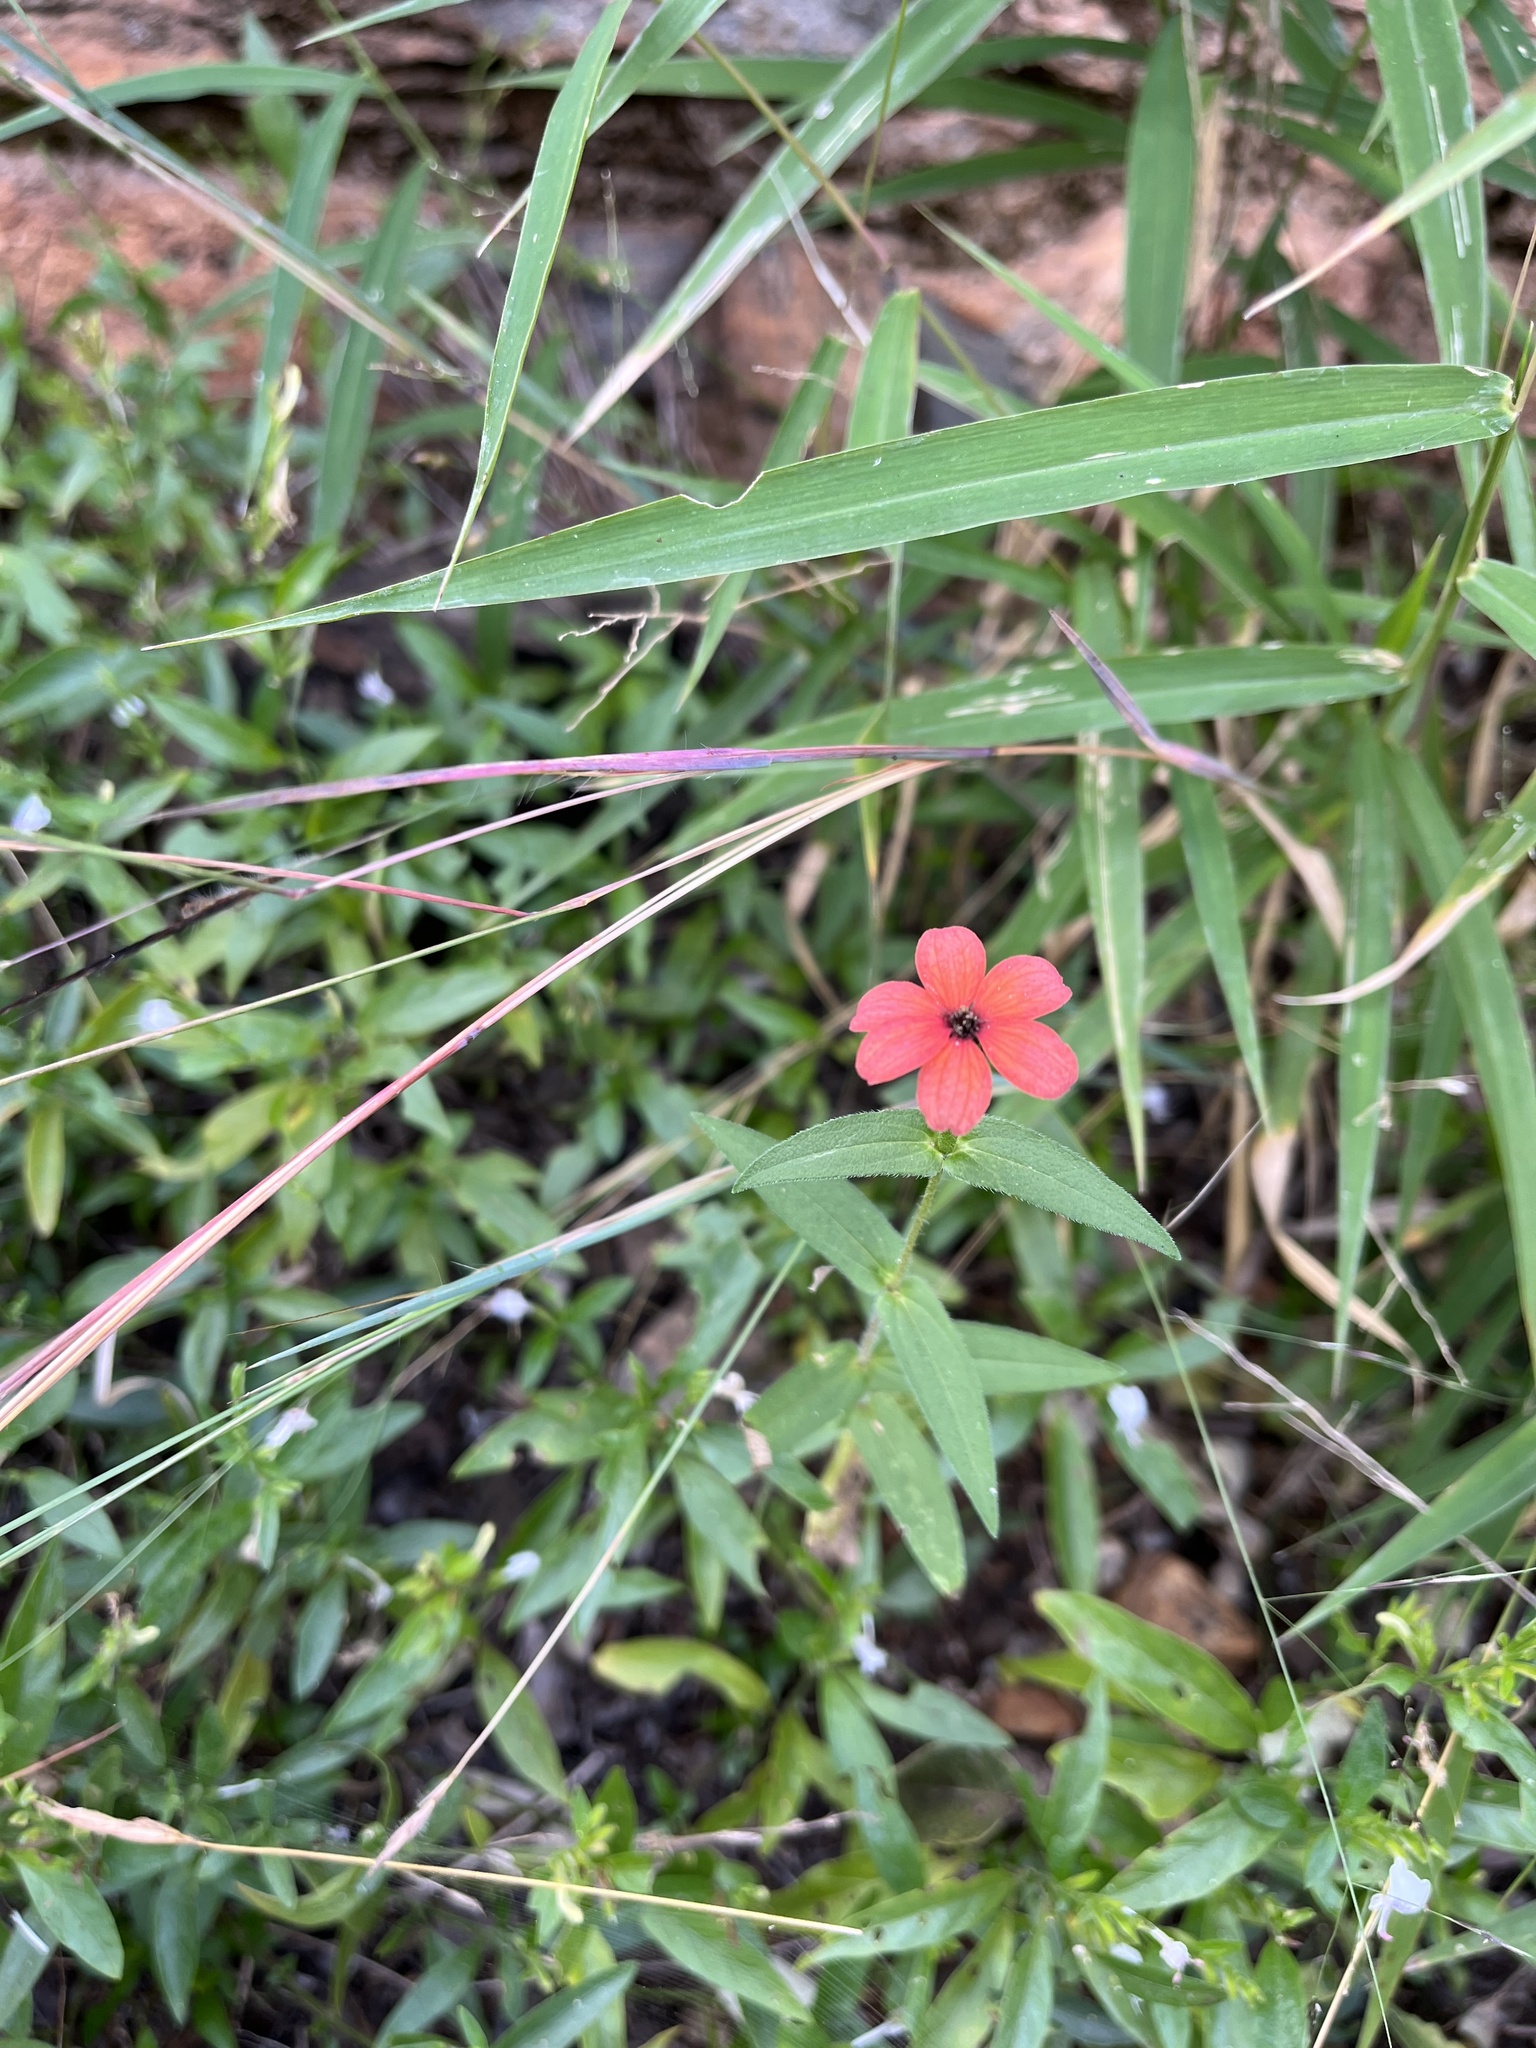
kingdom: Plantae
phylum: Tracheophyta
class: Magnoliopsida
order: Asterales
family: Asteraceae
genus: Zinnia
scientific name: Zinnia peruviana
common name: Peruvian zinnia
